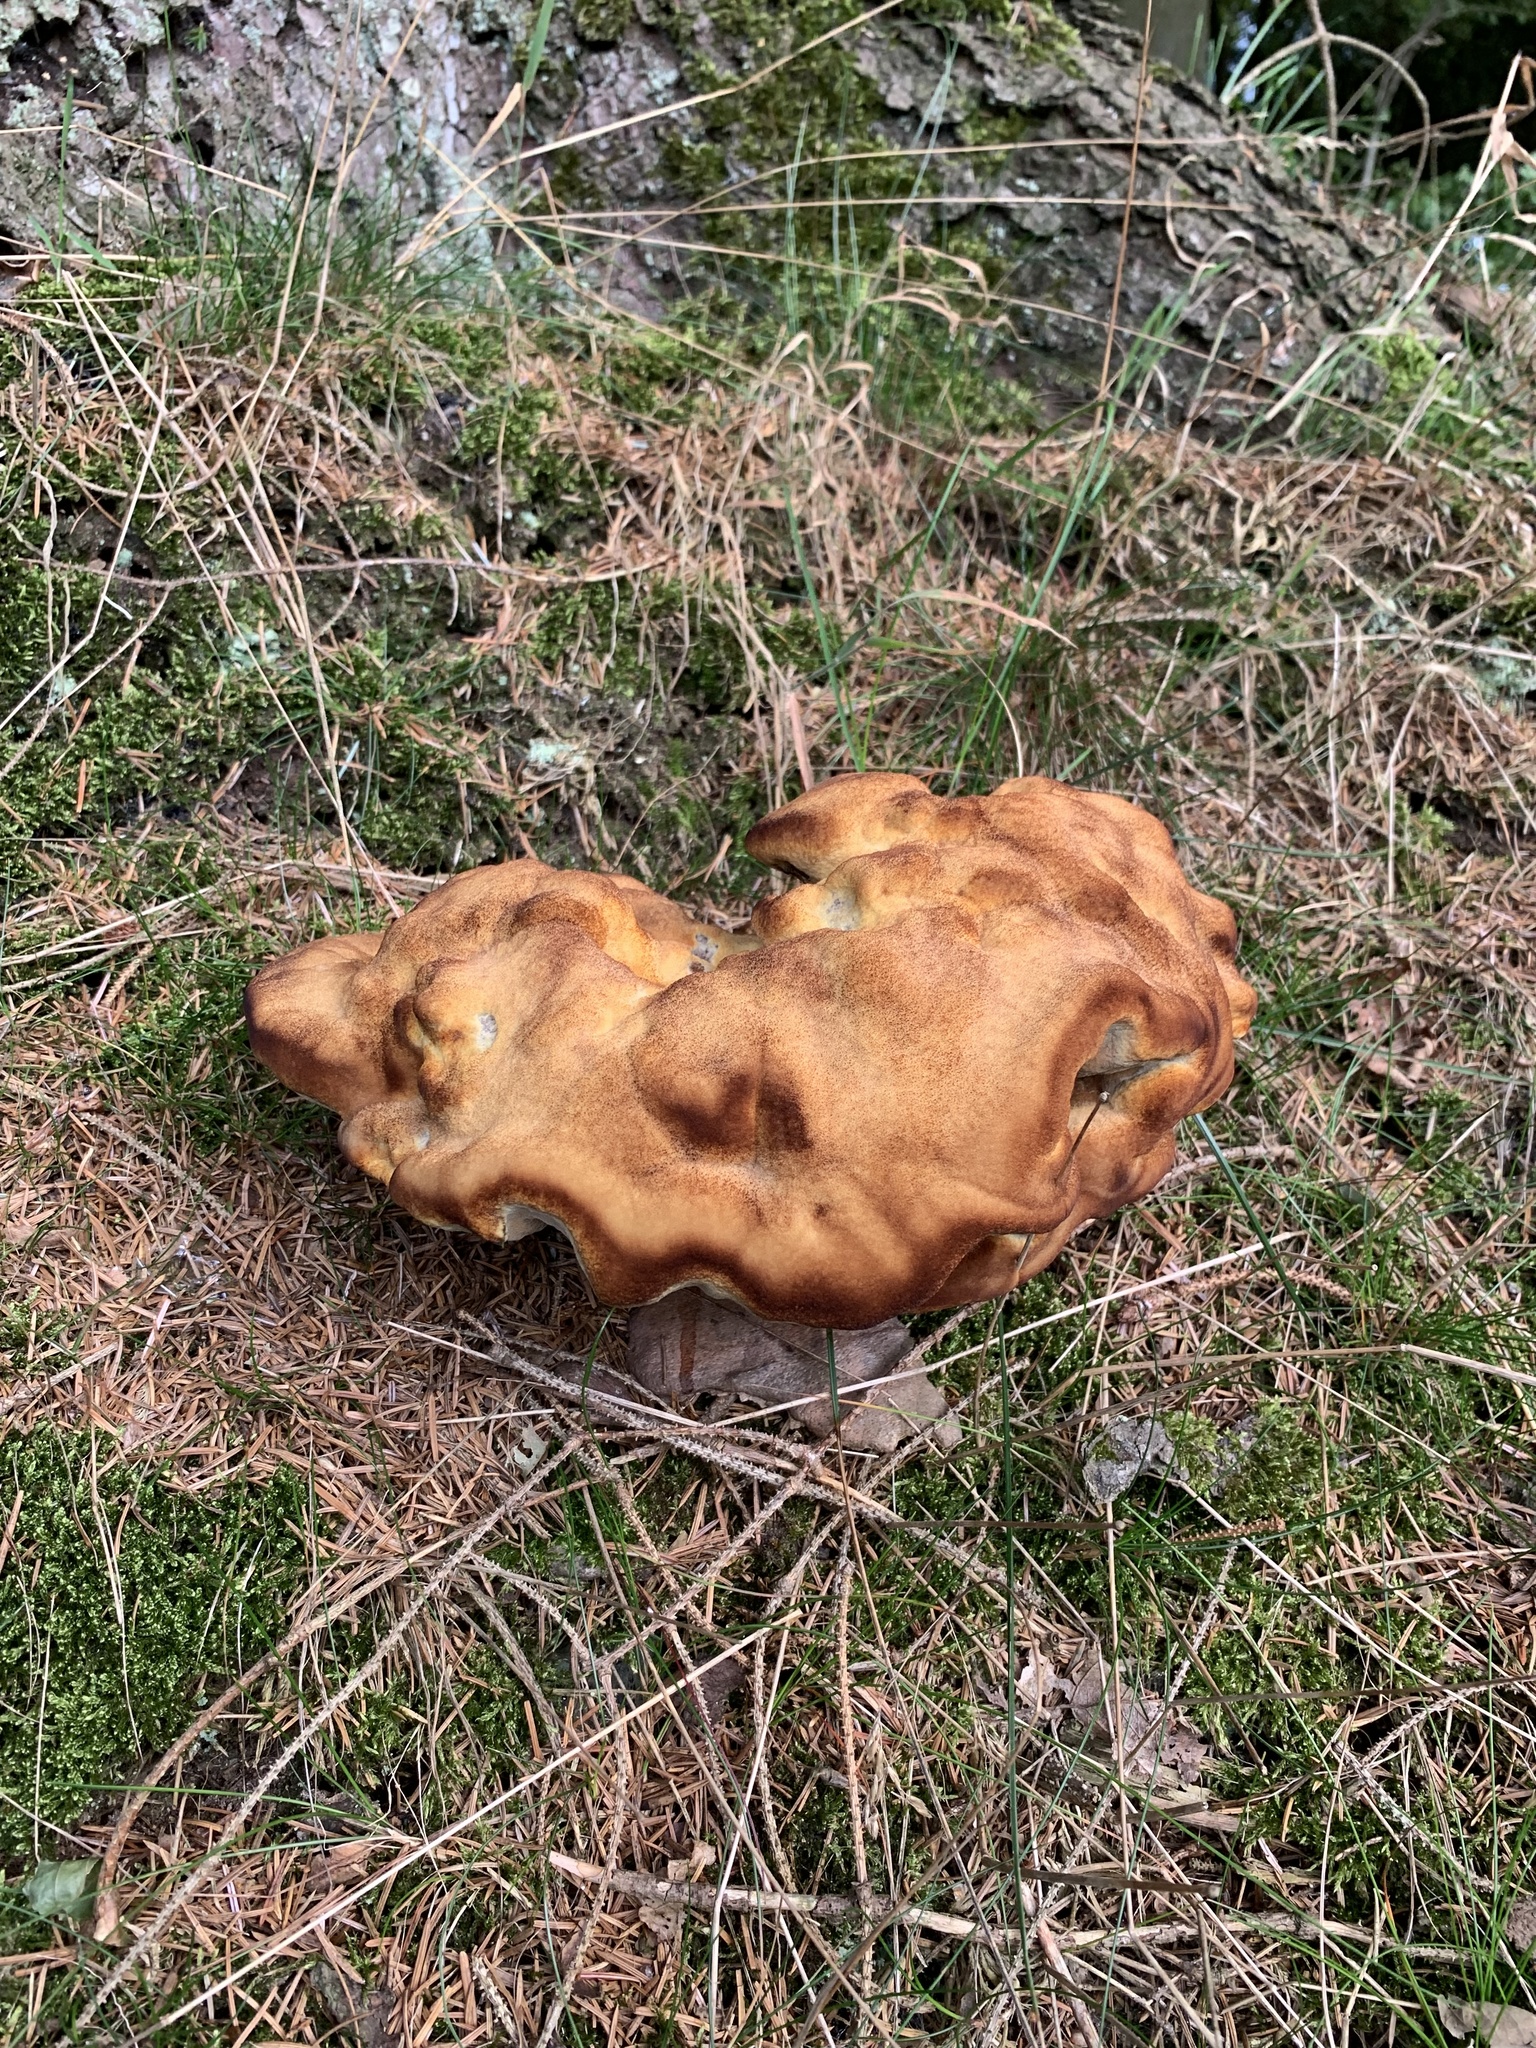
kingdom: Fungi
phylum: Basidiomycota
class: Agaricomycetes
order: Polyporales
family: Laetiporaceae
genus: Phaeolus
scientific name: Phaeolus schweinitzii
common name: Dyer's mazegill
